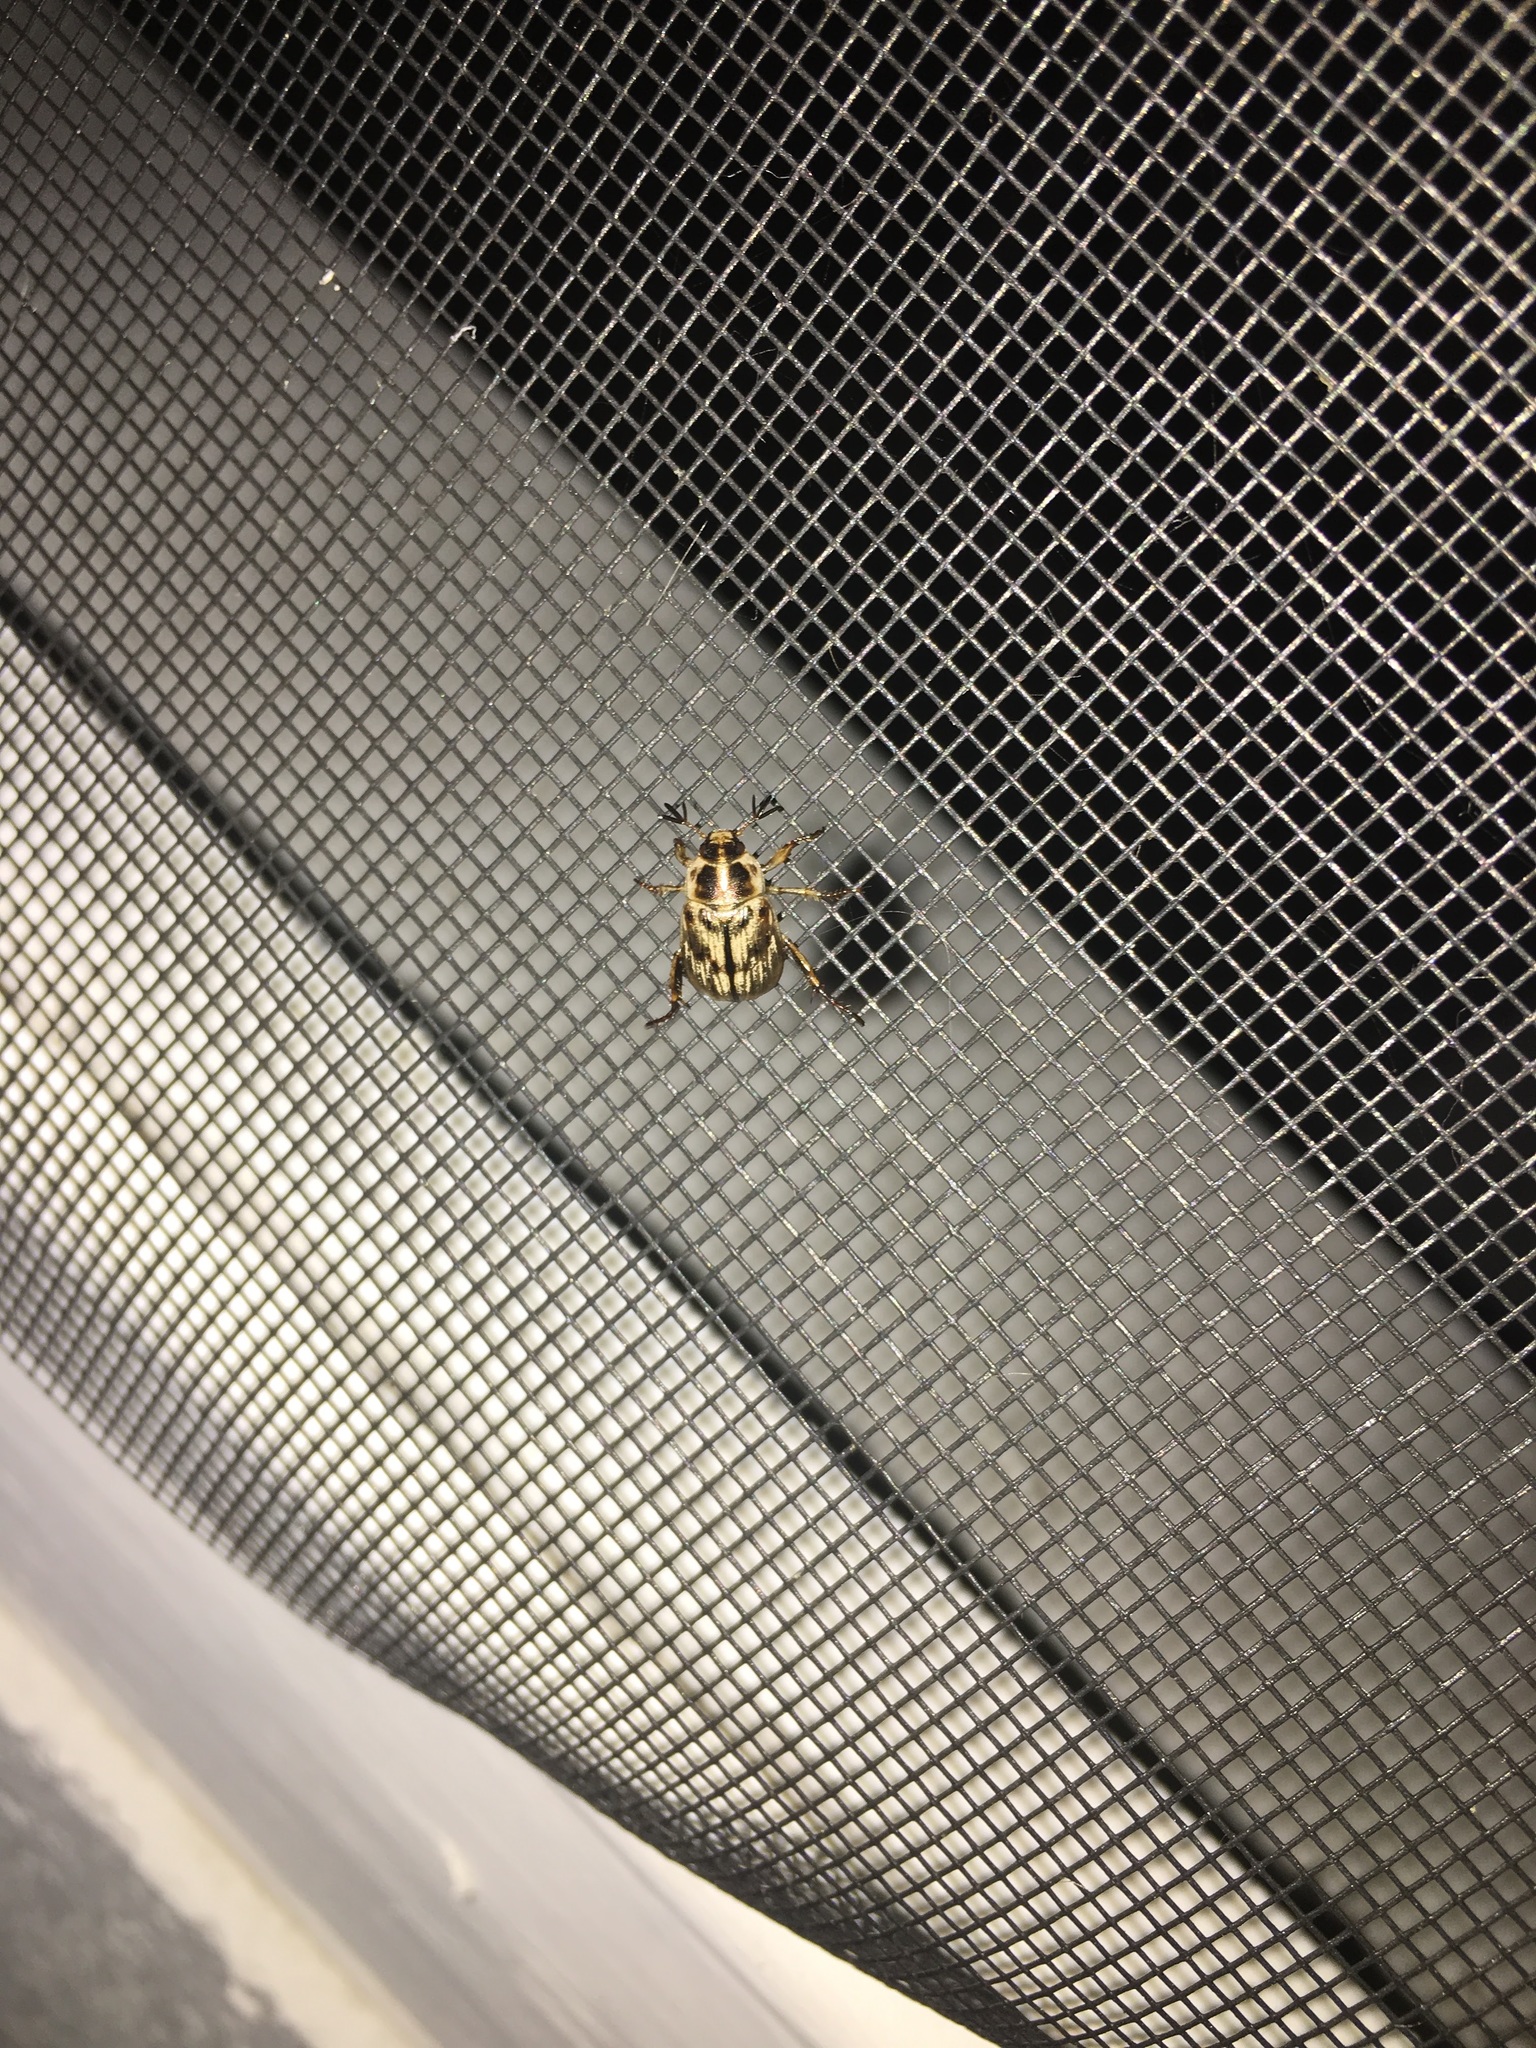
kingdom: Animalia
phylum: Arthropoda
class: Insecta
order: Coleoptera
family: Scarabaeidae
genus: Exomala
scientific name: Exomala orientalis
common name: Oriental beetle
